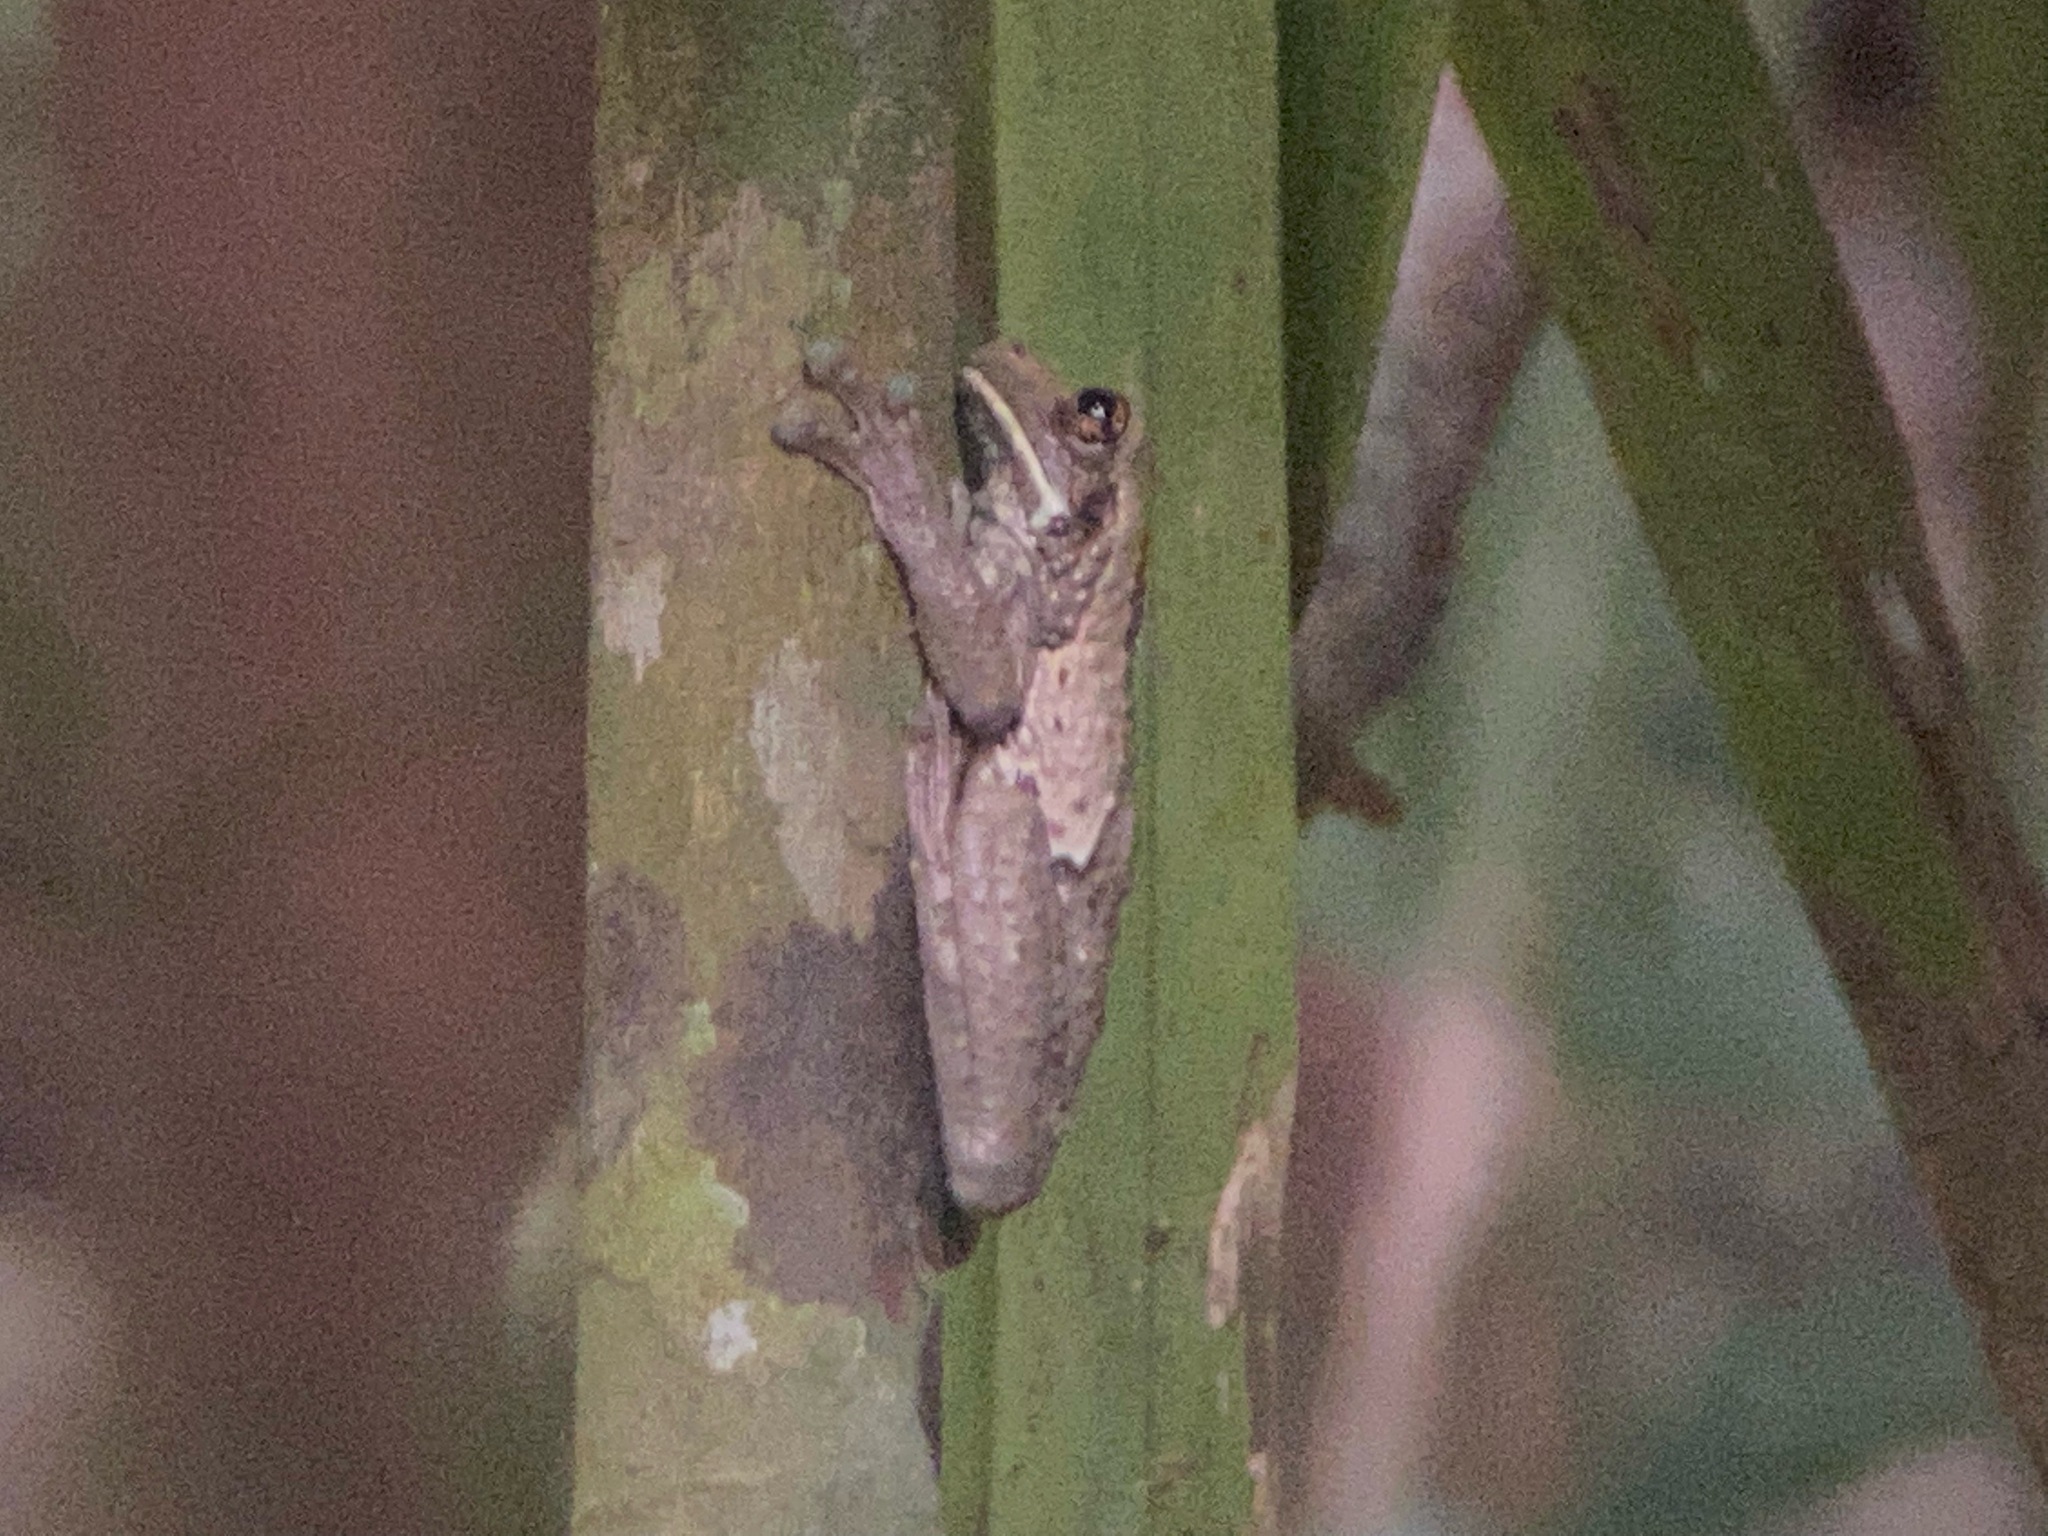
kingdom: Animalia
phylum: Chordata
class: Amphibia
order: Anura
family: Hylidae
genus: Trachycephalus
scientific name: Trachycephalus vermiculatus
